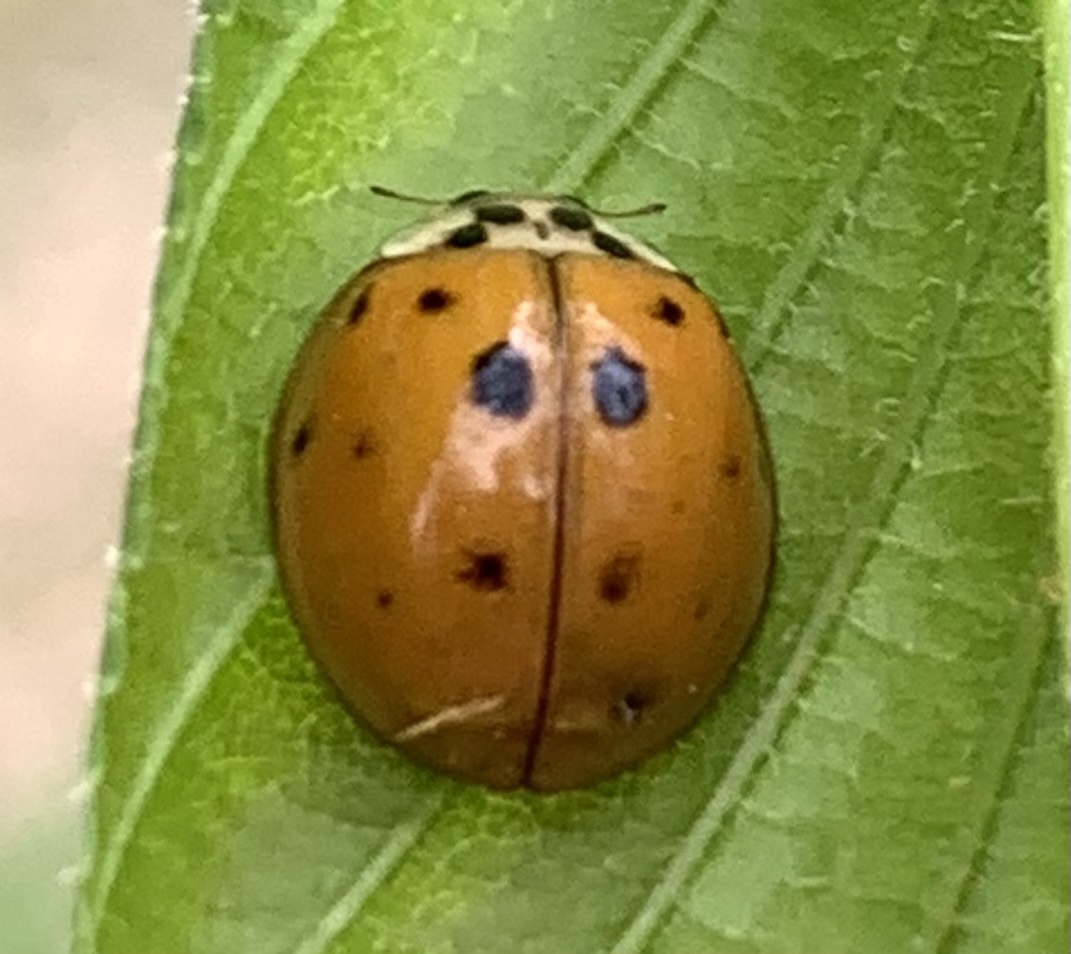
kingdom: Animalia
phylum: Arthropoda
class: Insecta
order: Coleoptera
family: Coccinellidae
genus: Harmonia
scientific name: Harmonia axyridis
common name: Harlequin ladybird
